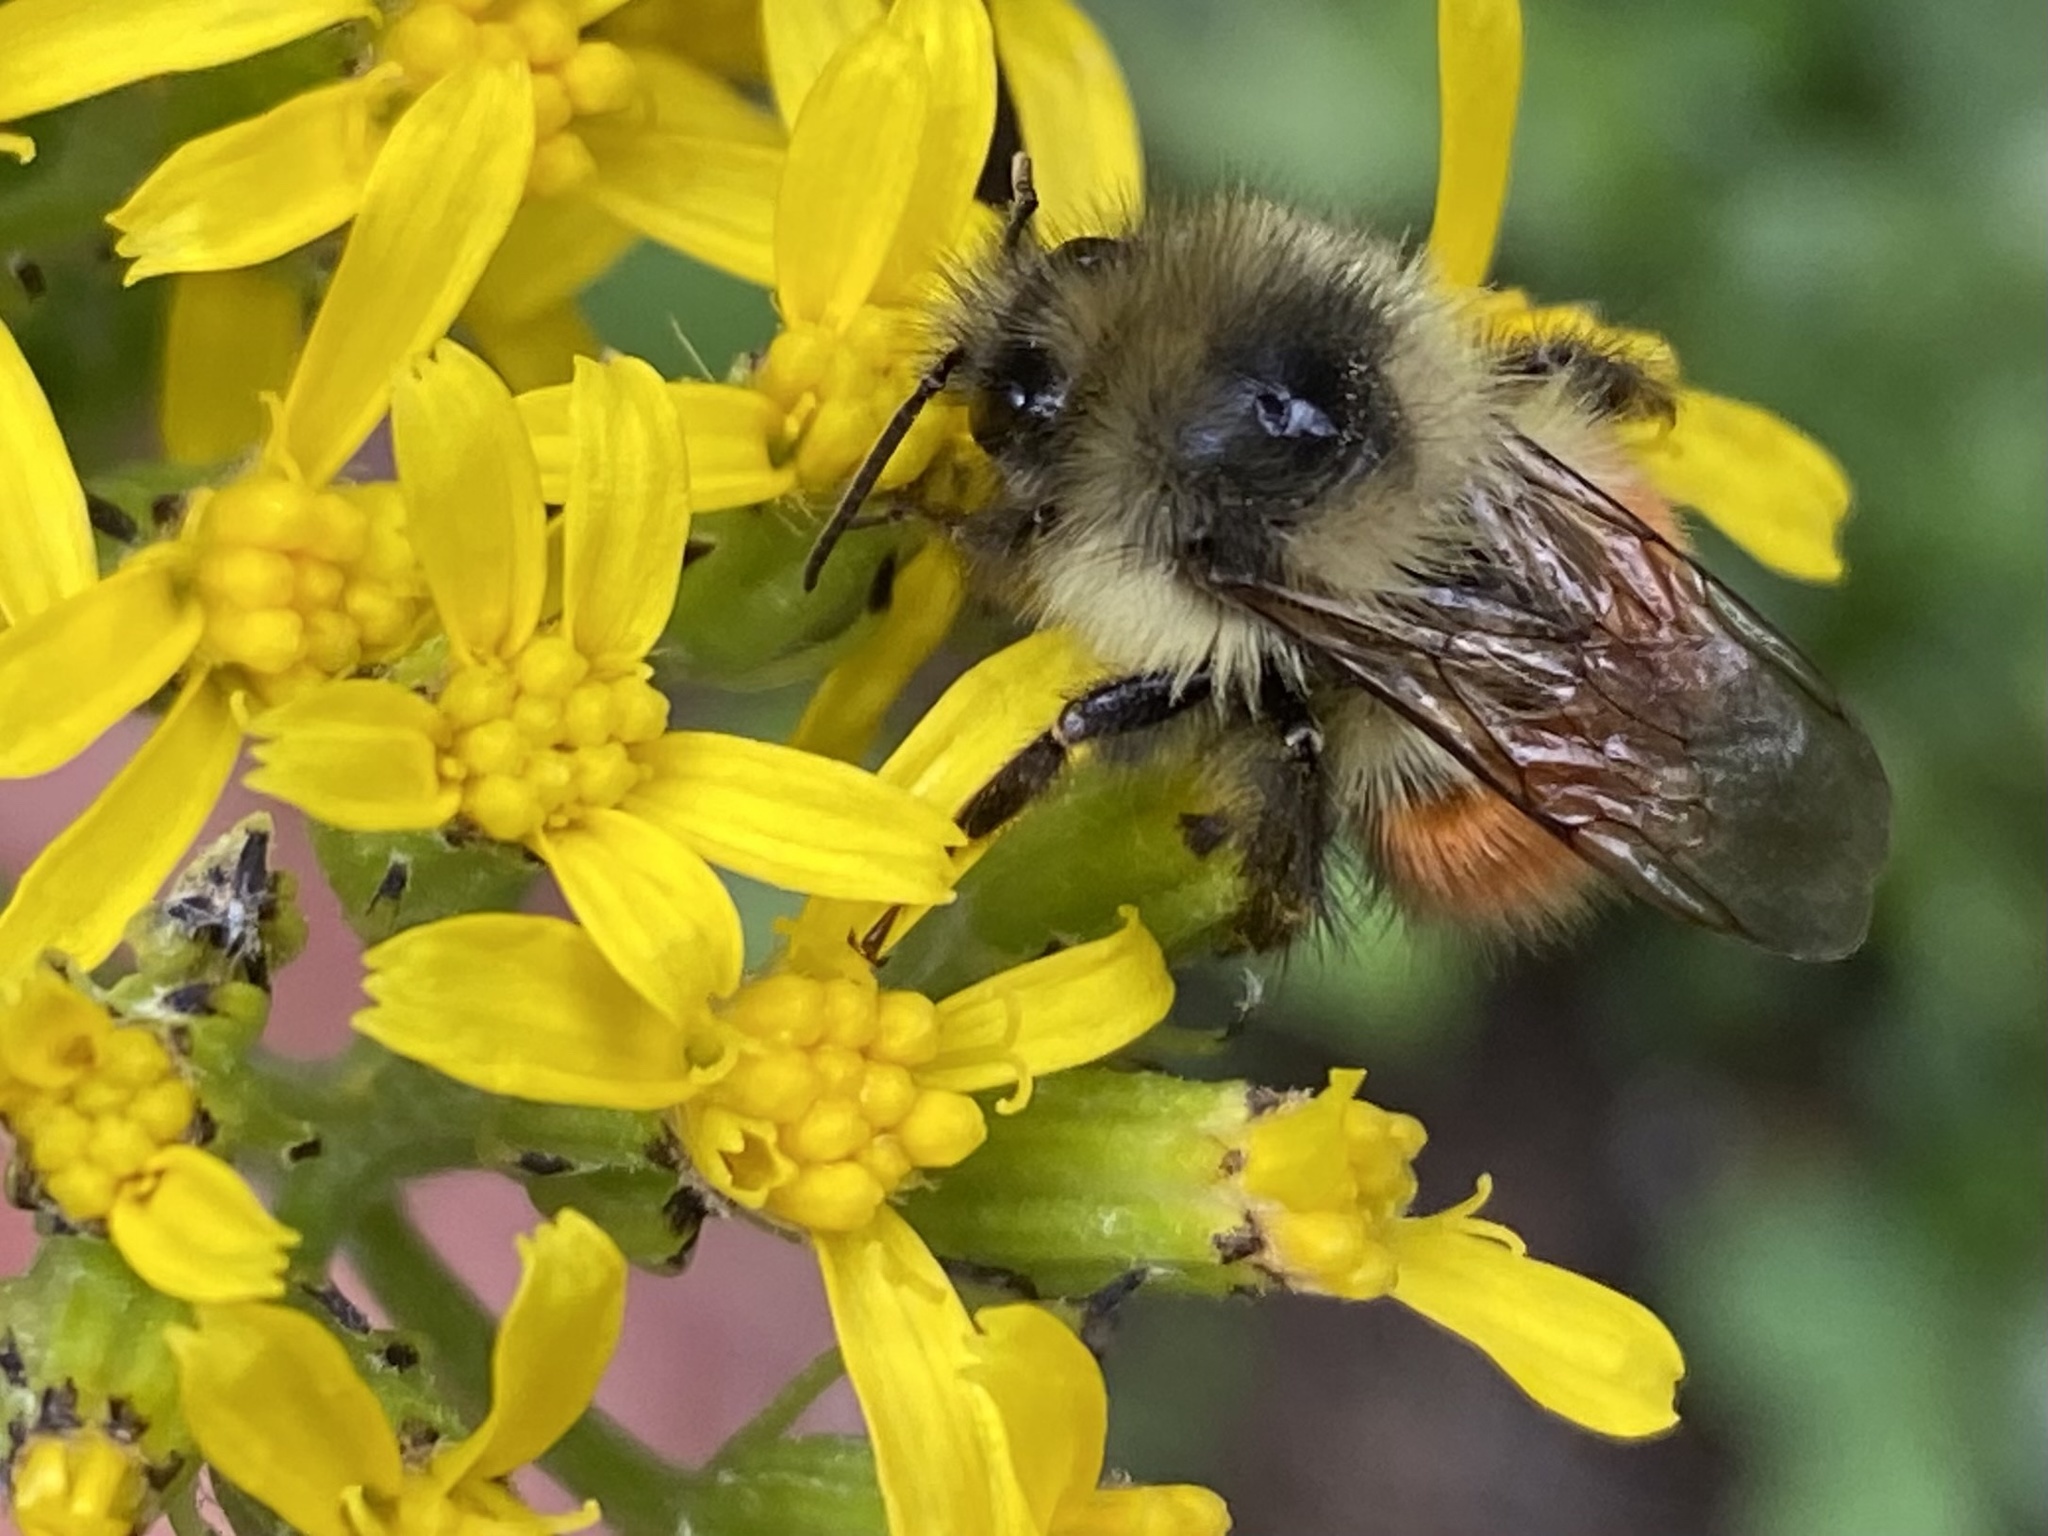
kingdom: Animalia
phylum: Arthropoda
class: Insecta
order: Hymenoptera
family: Apidae
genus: Bombus
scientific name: Bombus melanopygus
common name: Black tail bumble bee
